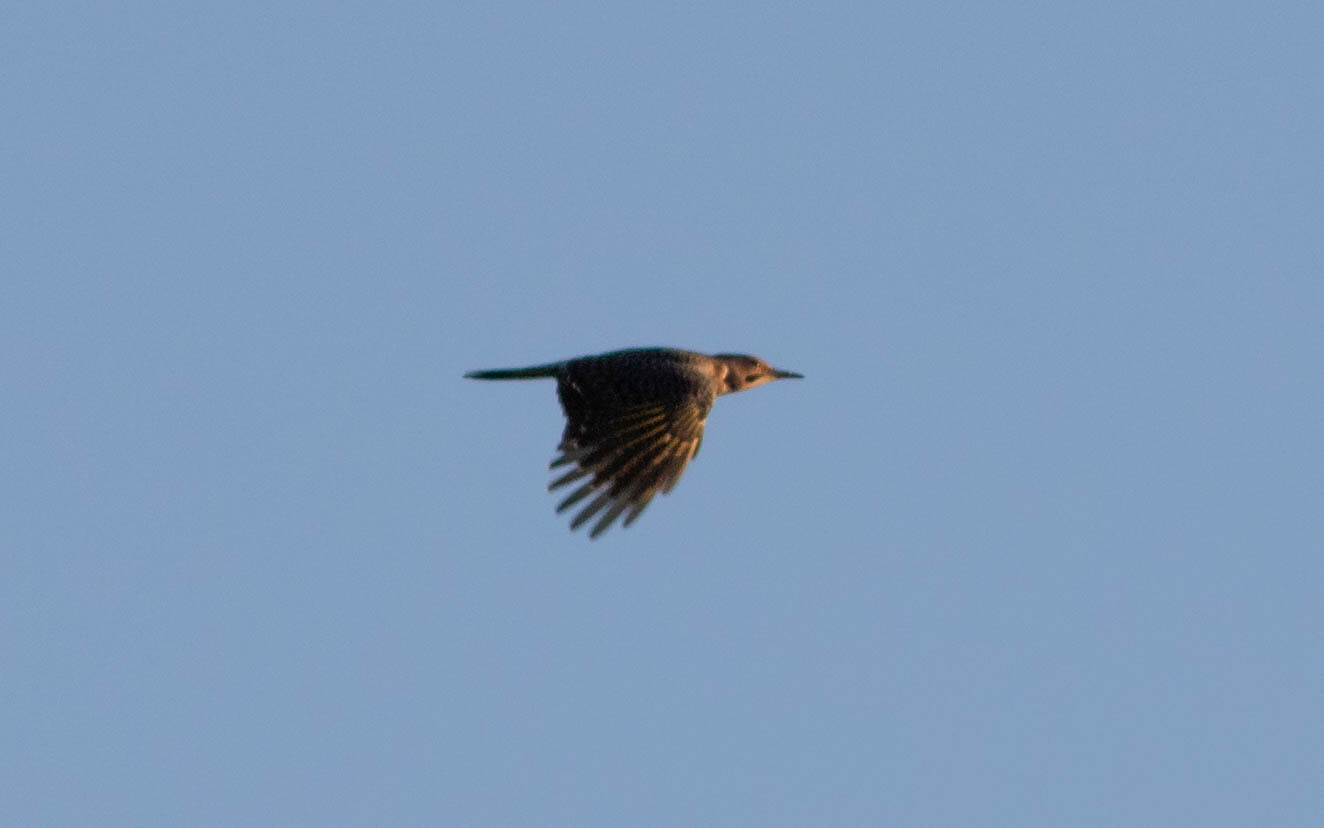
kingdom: Animalia
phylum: Chordata
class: Aves
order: Piciformes
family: Picidae
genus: Colaptes
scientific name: Colaptes auratus
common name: Northern flicker
